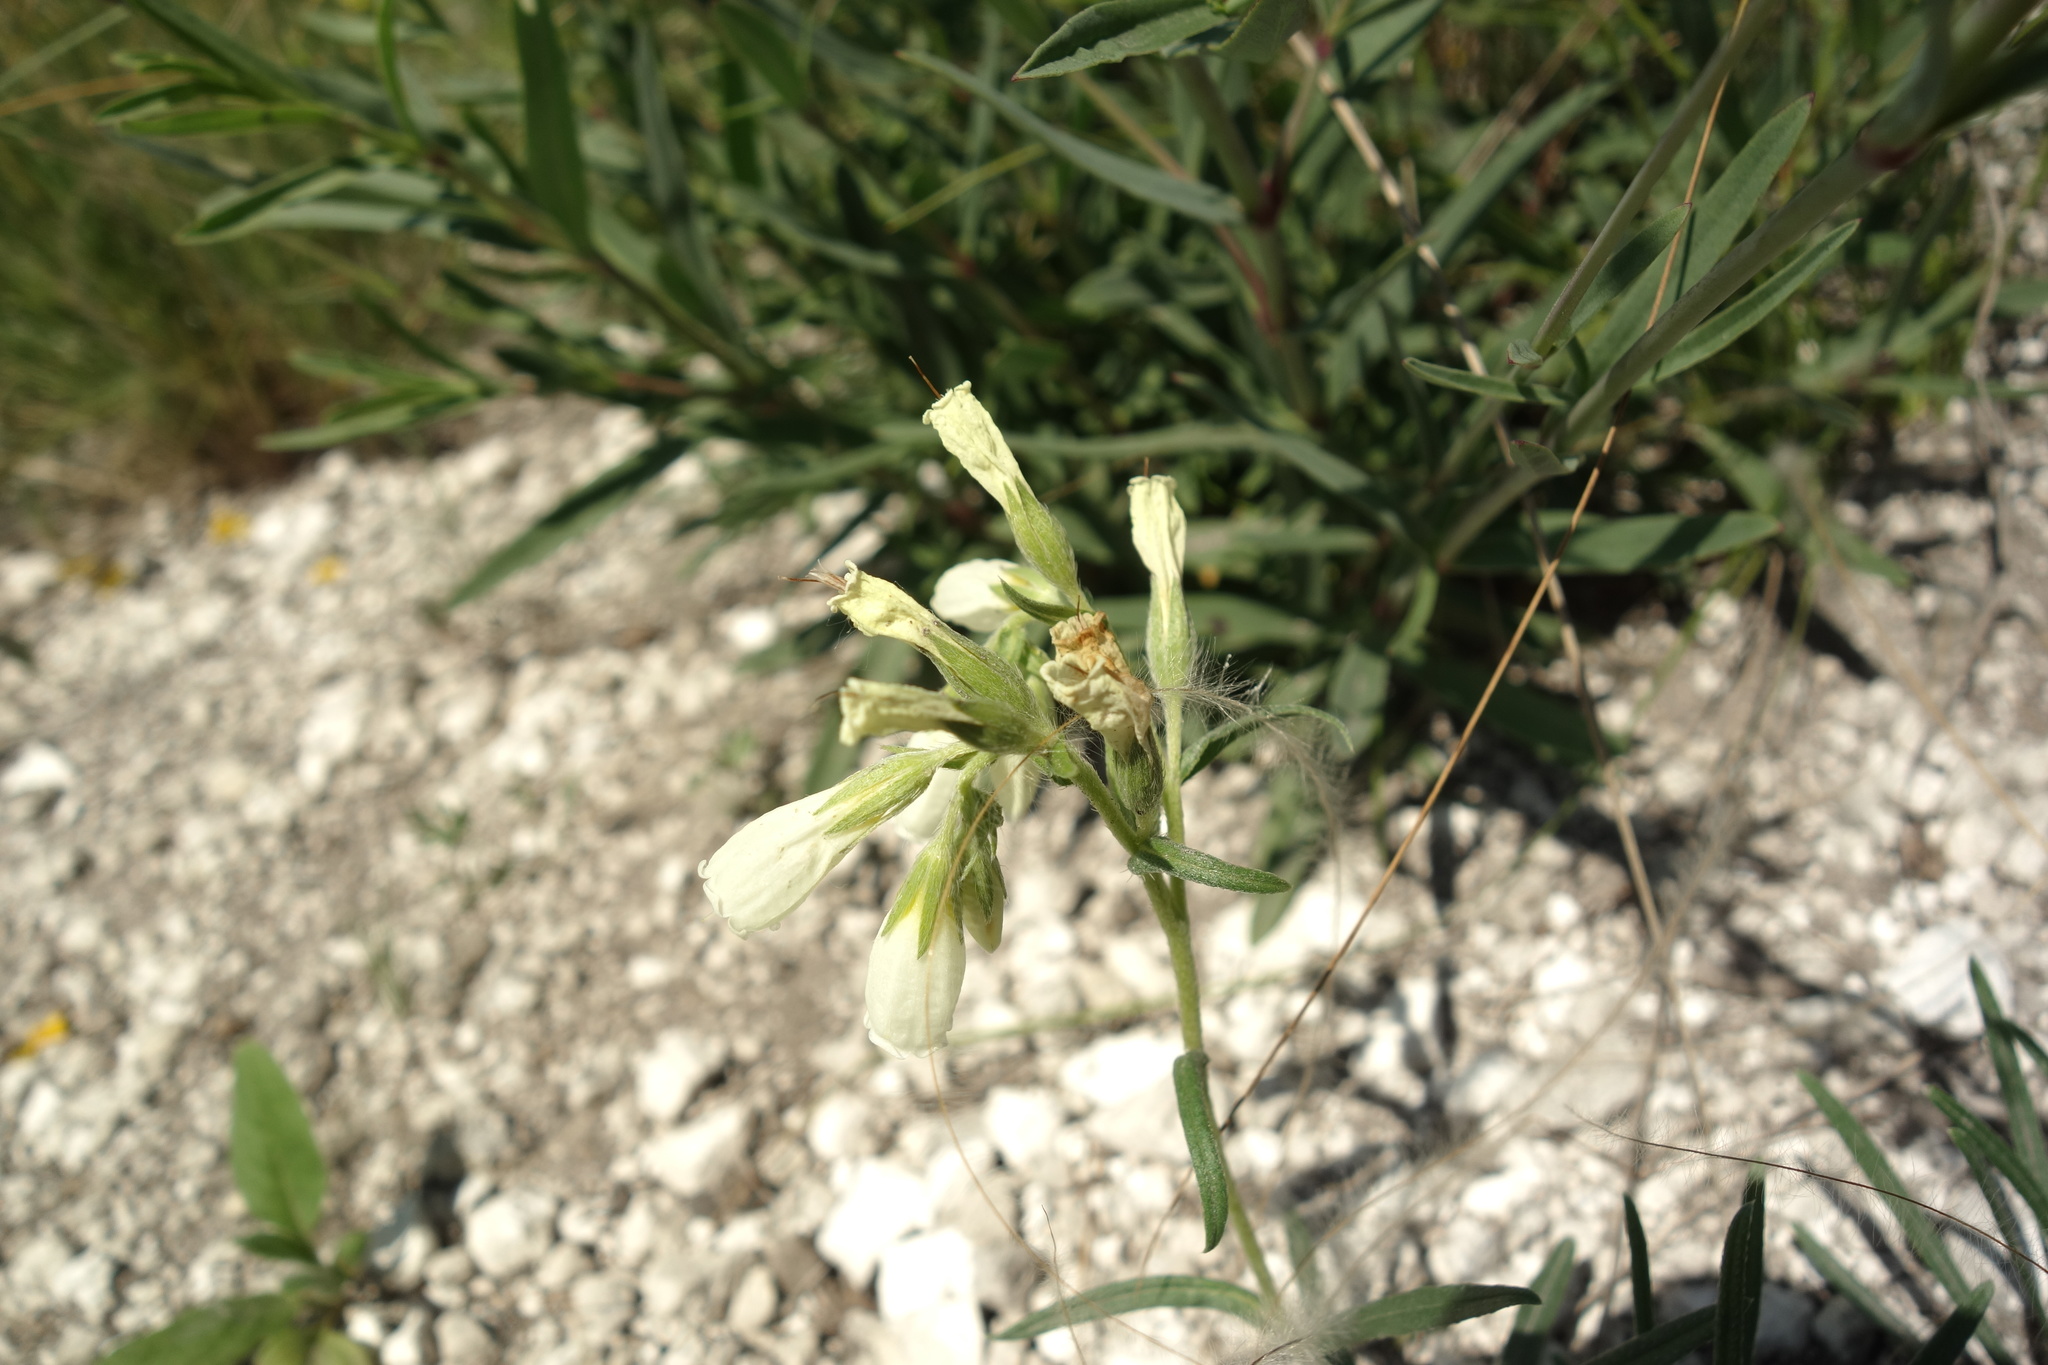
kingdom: Plantae
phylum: Tracheophyta
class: Magnoliopsida
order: Boraginales
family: Boraginaceae
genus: Onosma
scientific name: Onosma simplicissima
